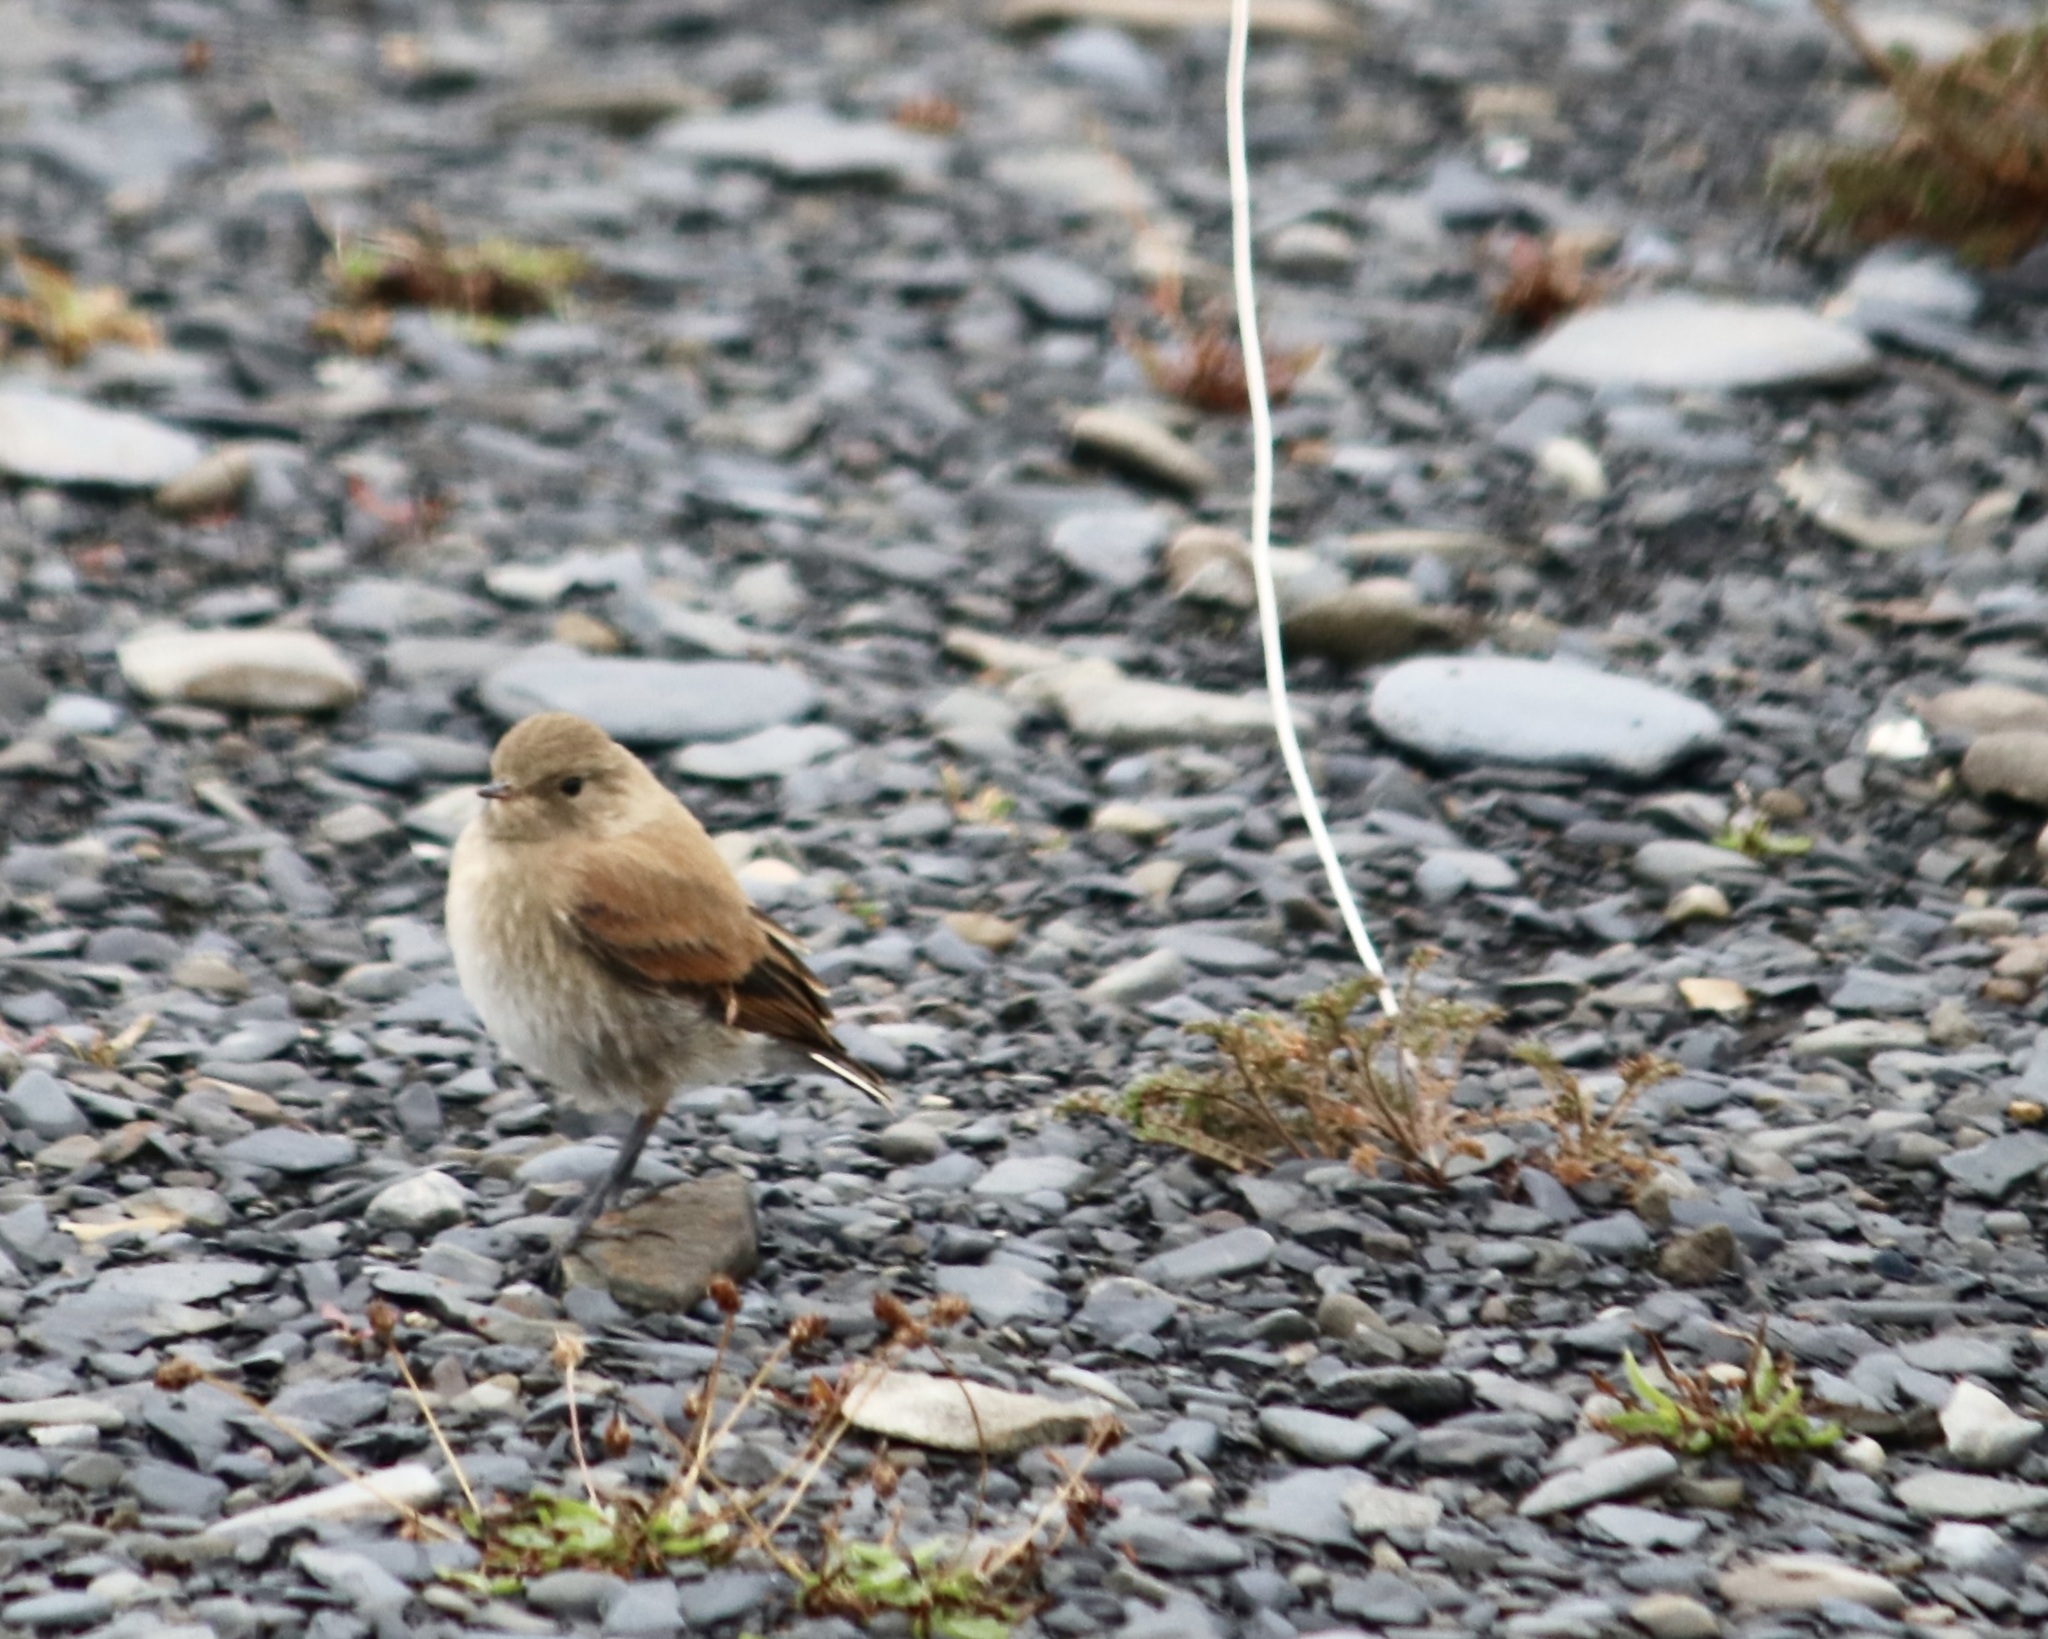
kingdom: Animalia
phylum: Chordata
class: Aves
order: Passeriformes
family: Tyrannidae
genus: Lessonia
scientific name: Lessonia rufa
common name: Austral negrito
